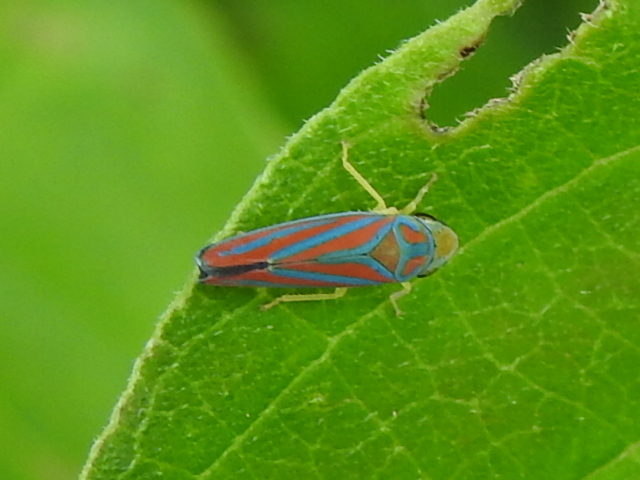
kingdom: Animalia
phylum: Arthropoda
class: Insecta
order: Hemiptera
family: Cicadellidae
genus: Graphocephala
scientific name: Graphocephala coccinea
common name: Candy-striped leafhopper
